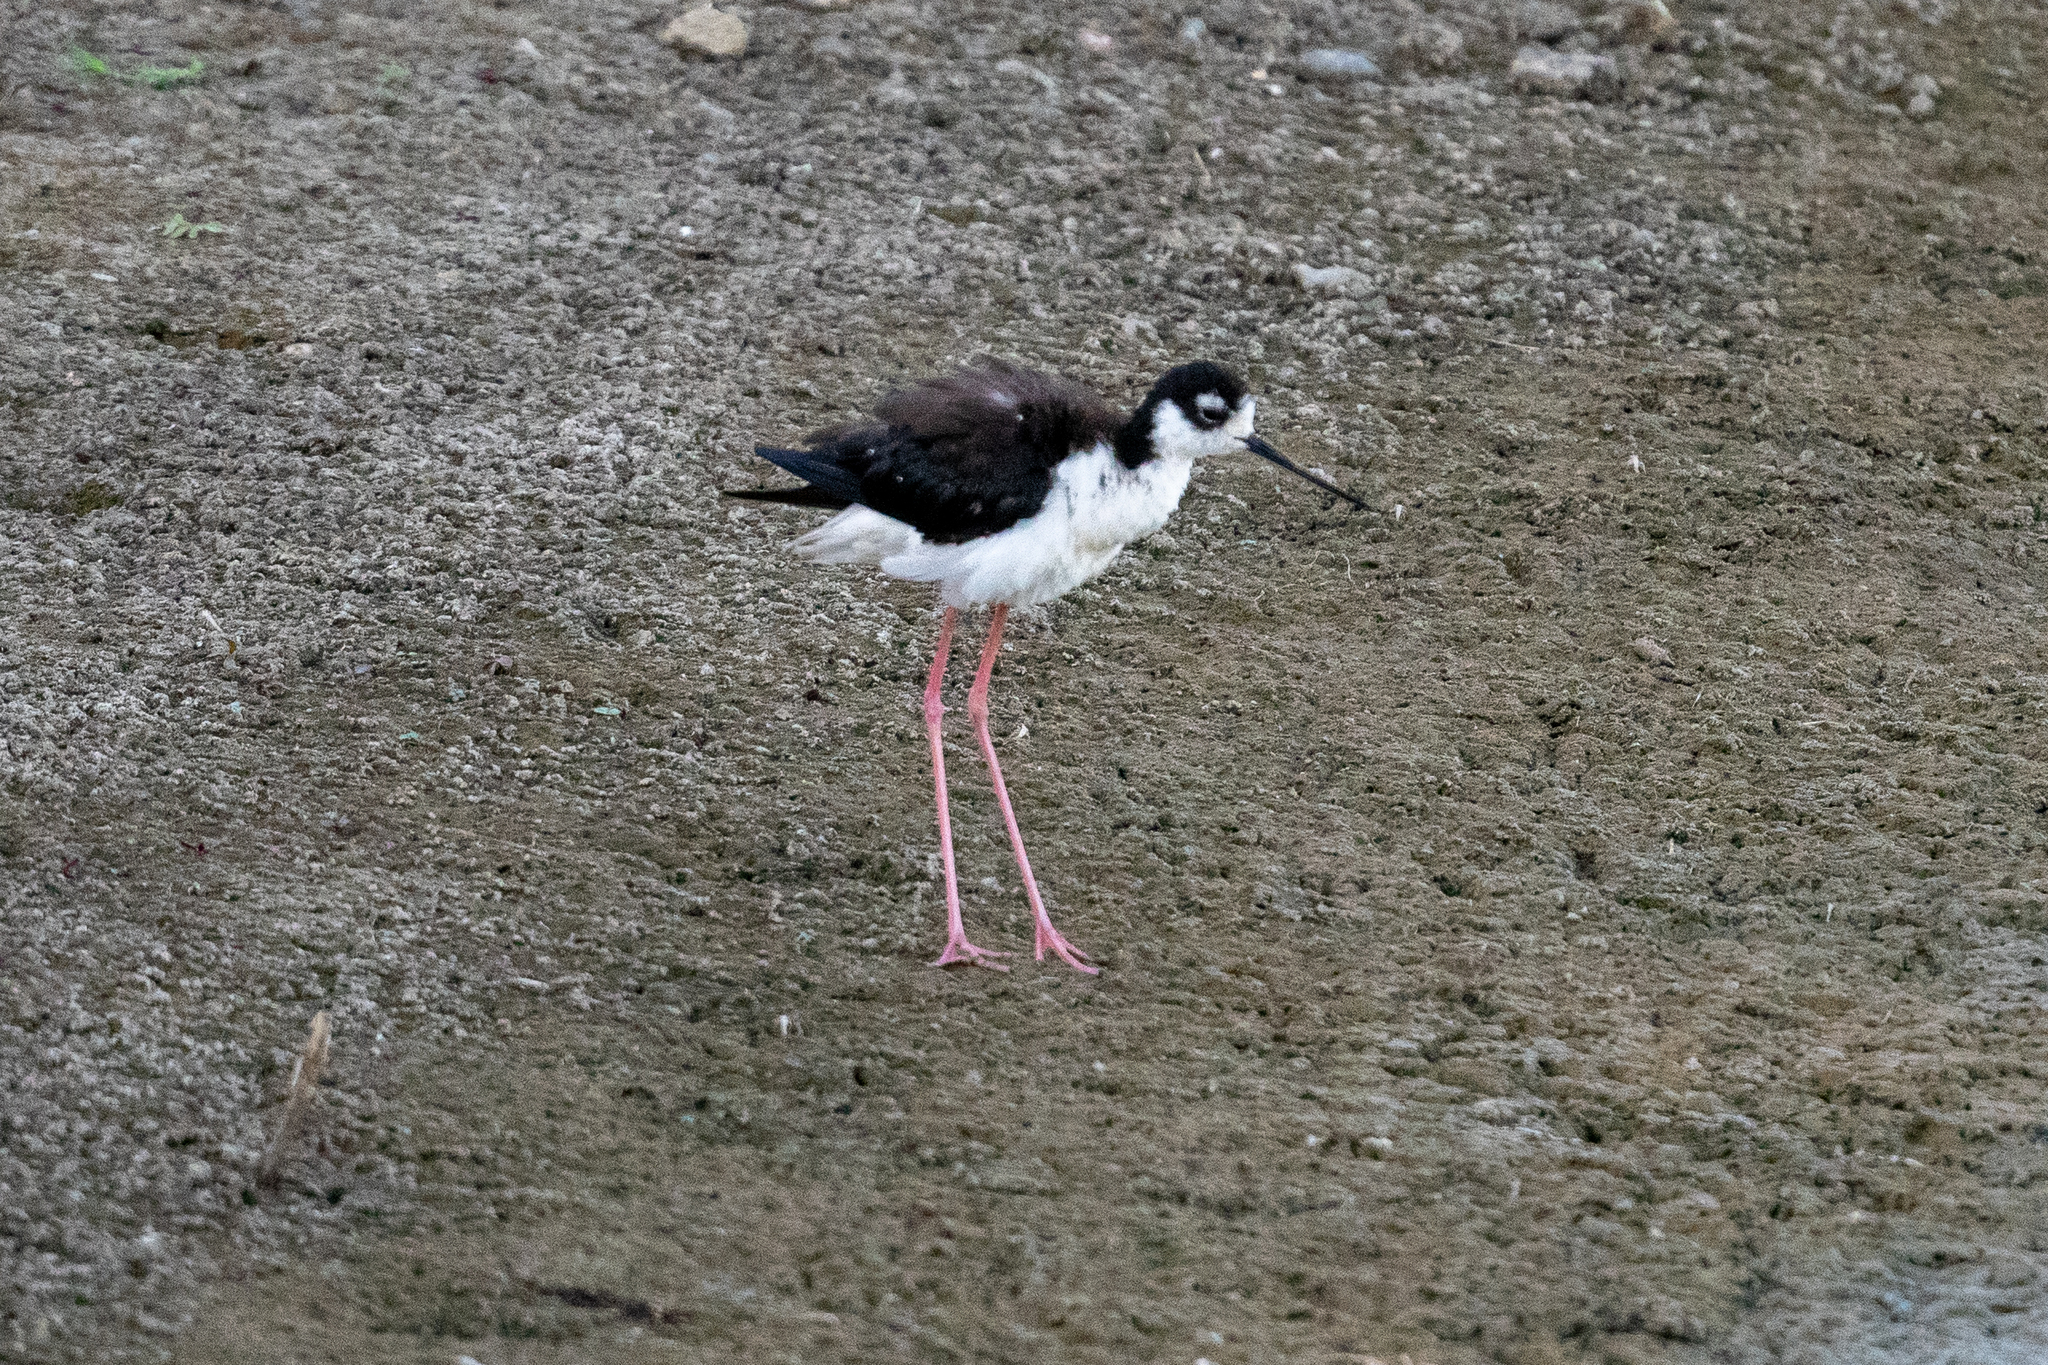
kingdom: Animalia
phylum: Chordata
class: Aves
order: Charadriiformes
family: Recurvirostridae
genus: Himantopus
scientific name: Himantopus mexicanus
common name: Black-necked stilt
